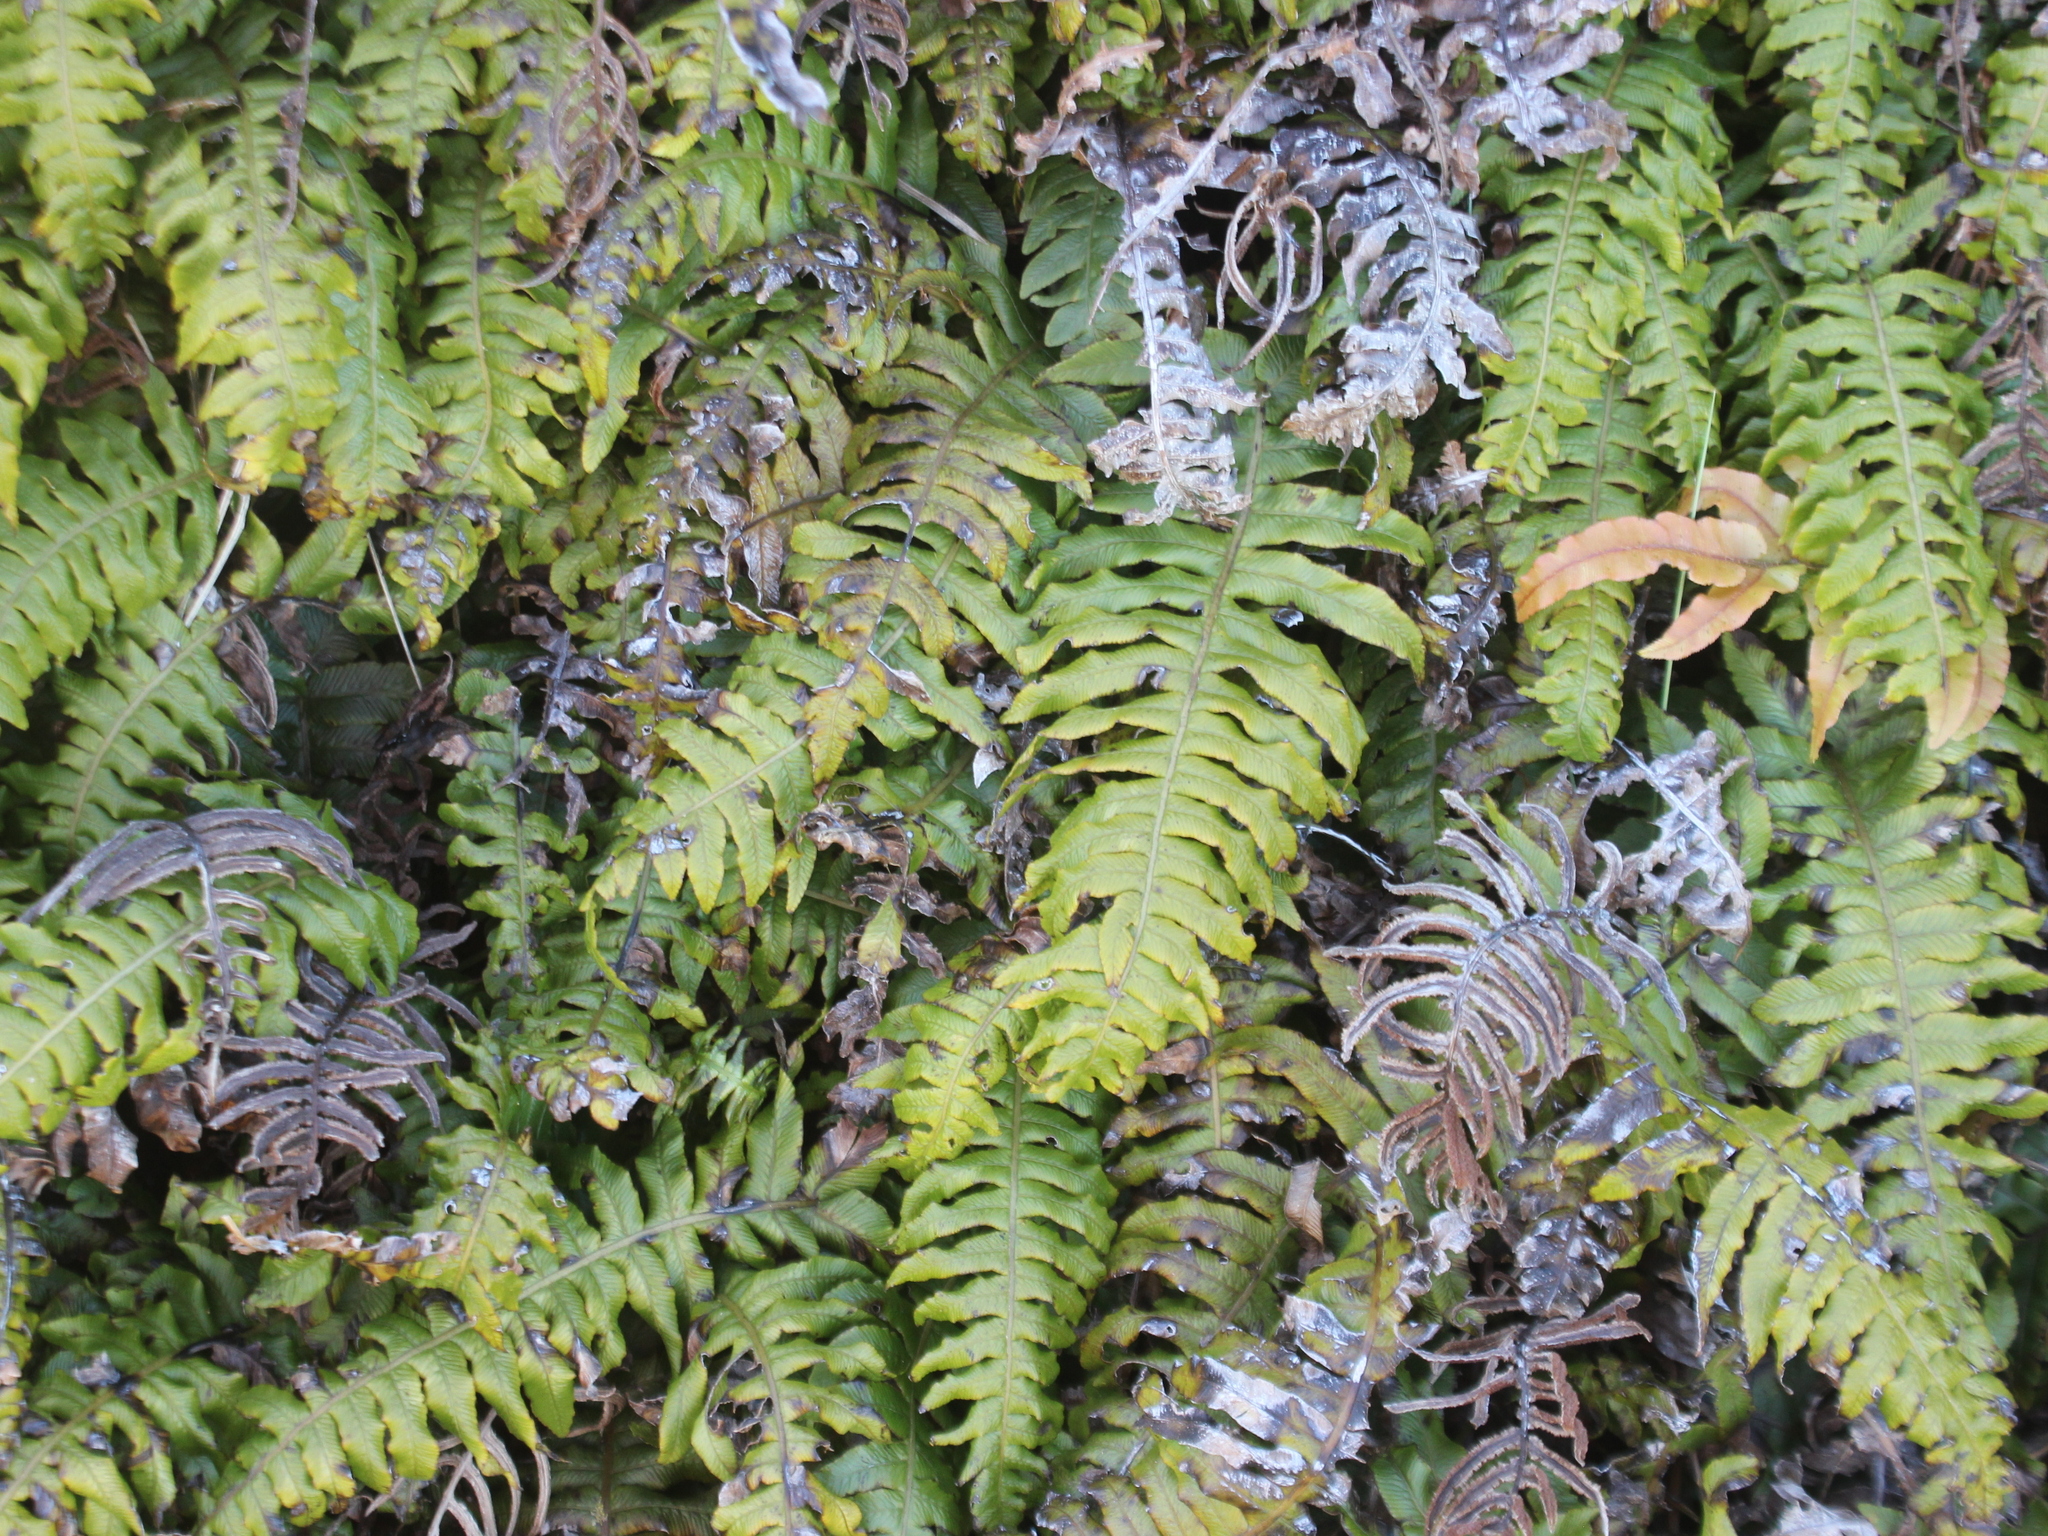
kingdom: Plantae
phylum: Tracheophyta
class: Polypodiopsida
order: Polypodiales
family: Blechnaceae
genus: Cranfillia
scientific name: Cranfillia deltoides
